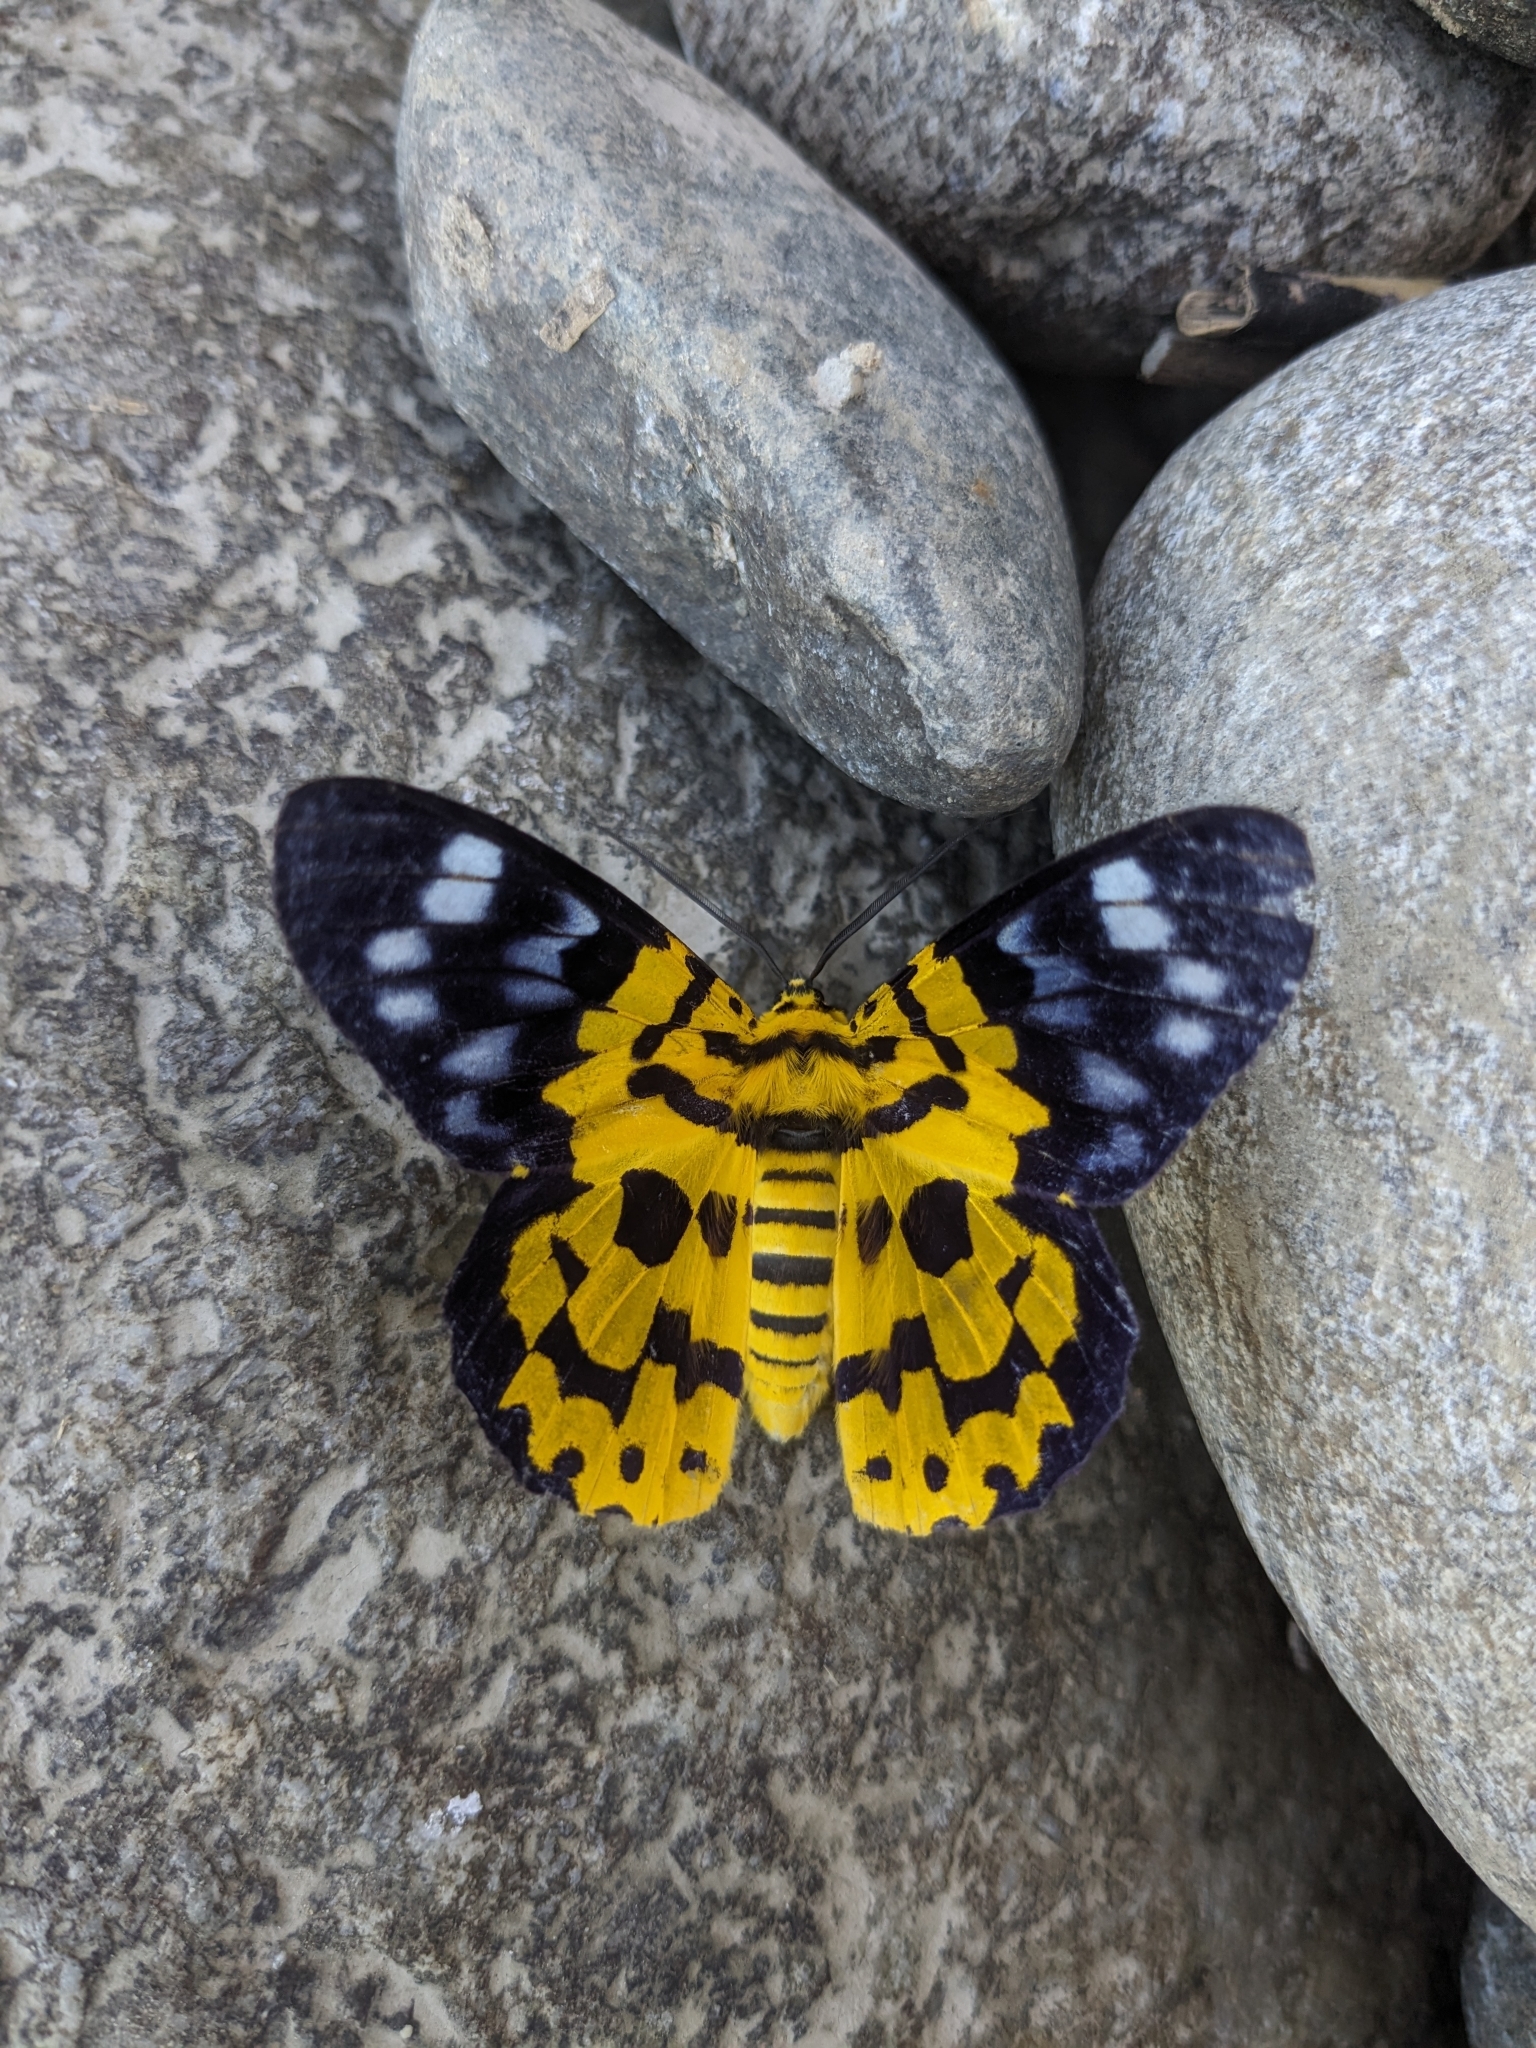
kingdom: Animalia
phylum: Arthropoda
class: Insecta
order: Lepidoptera
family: Geometridae
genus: Dysphania
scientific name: Dysphania militaris
